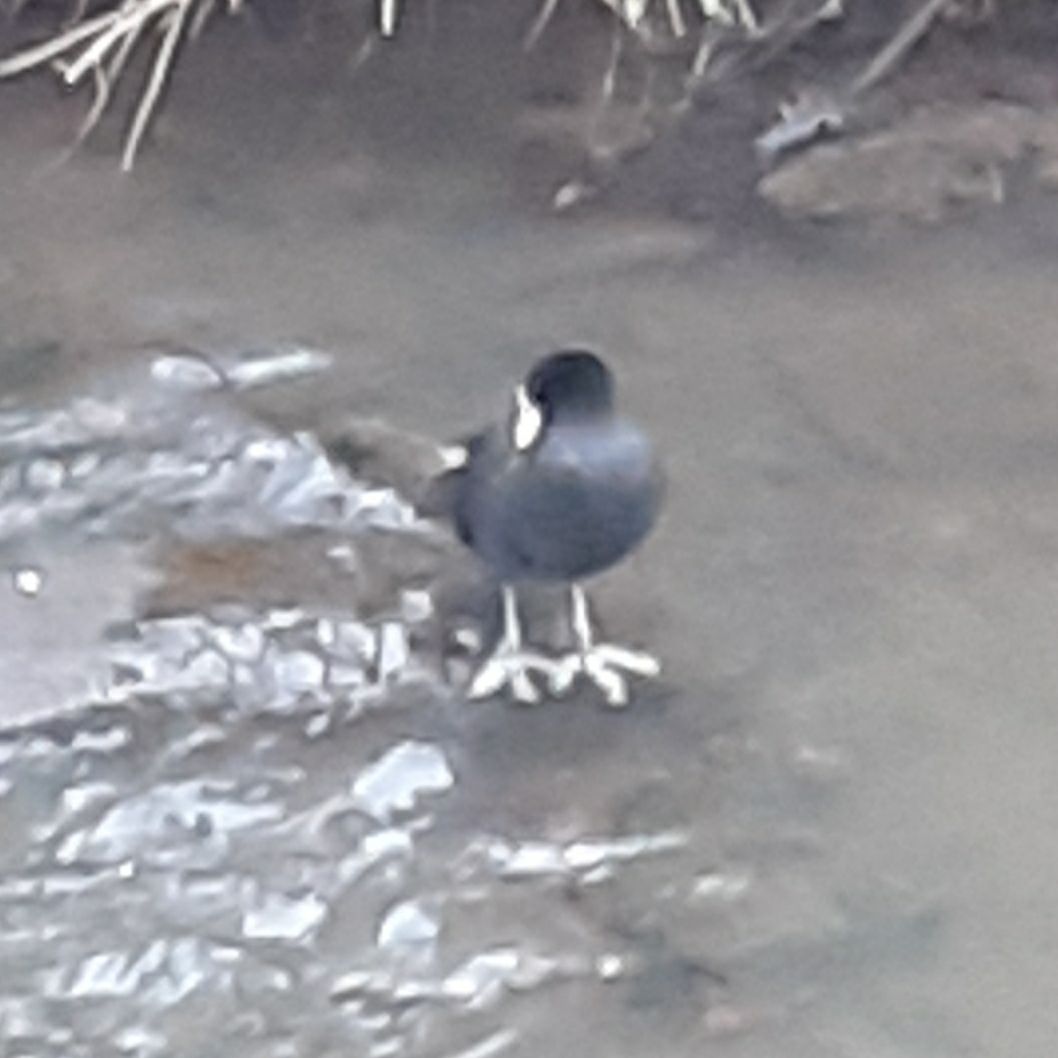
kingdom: Animalia
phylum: Chordata
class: Aves
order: Gruiformes
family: Rallidae
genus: Fulica
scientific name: Fulica atra
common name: Eurasian coot
